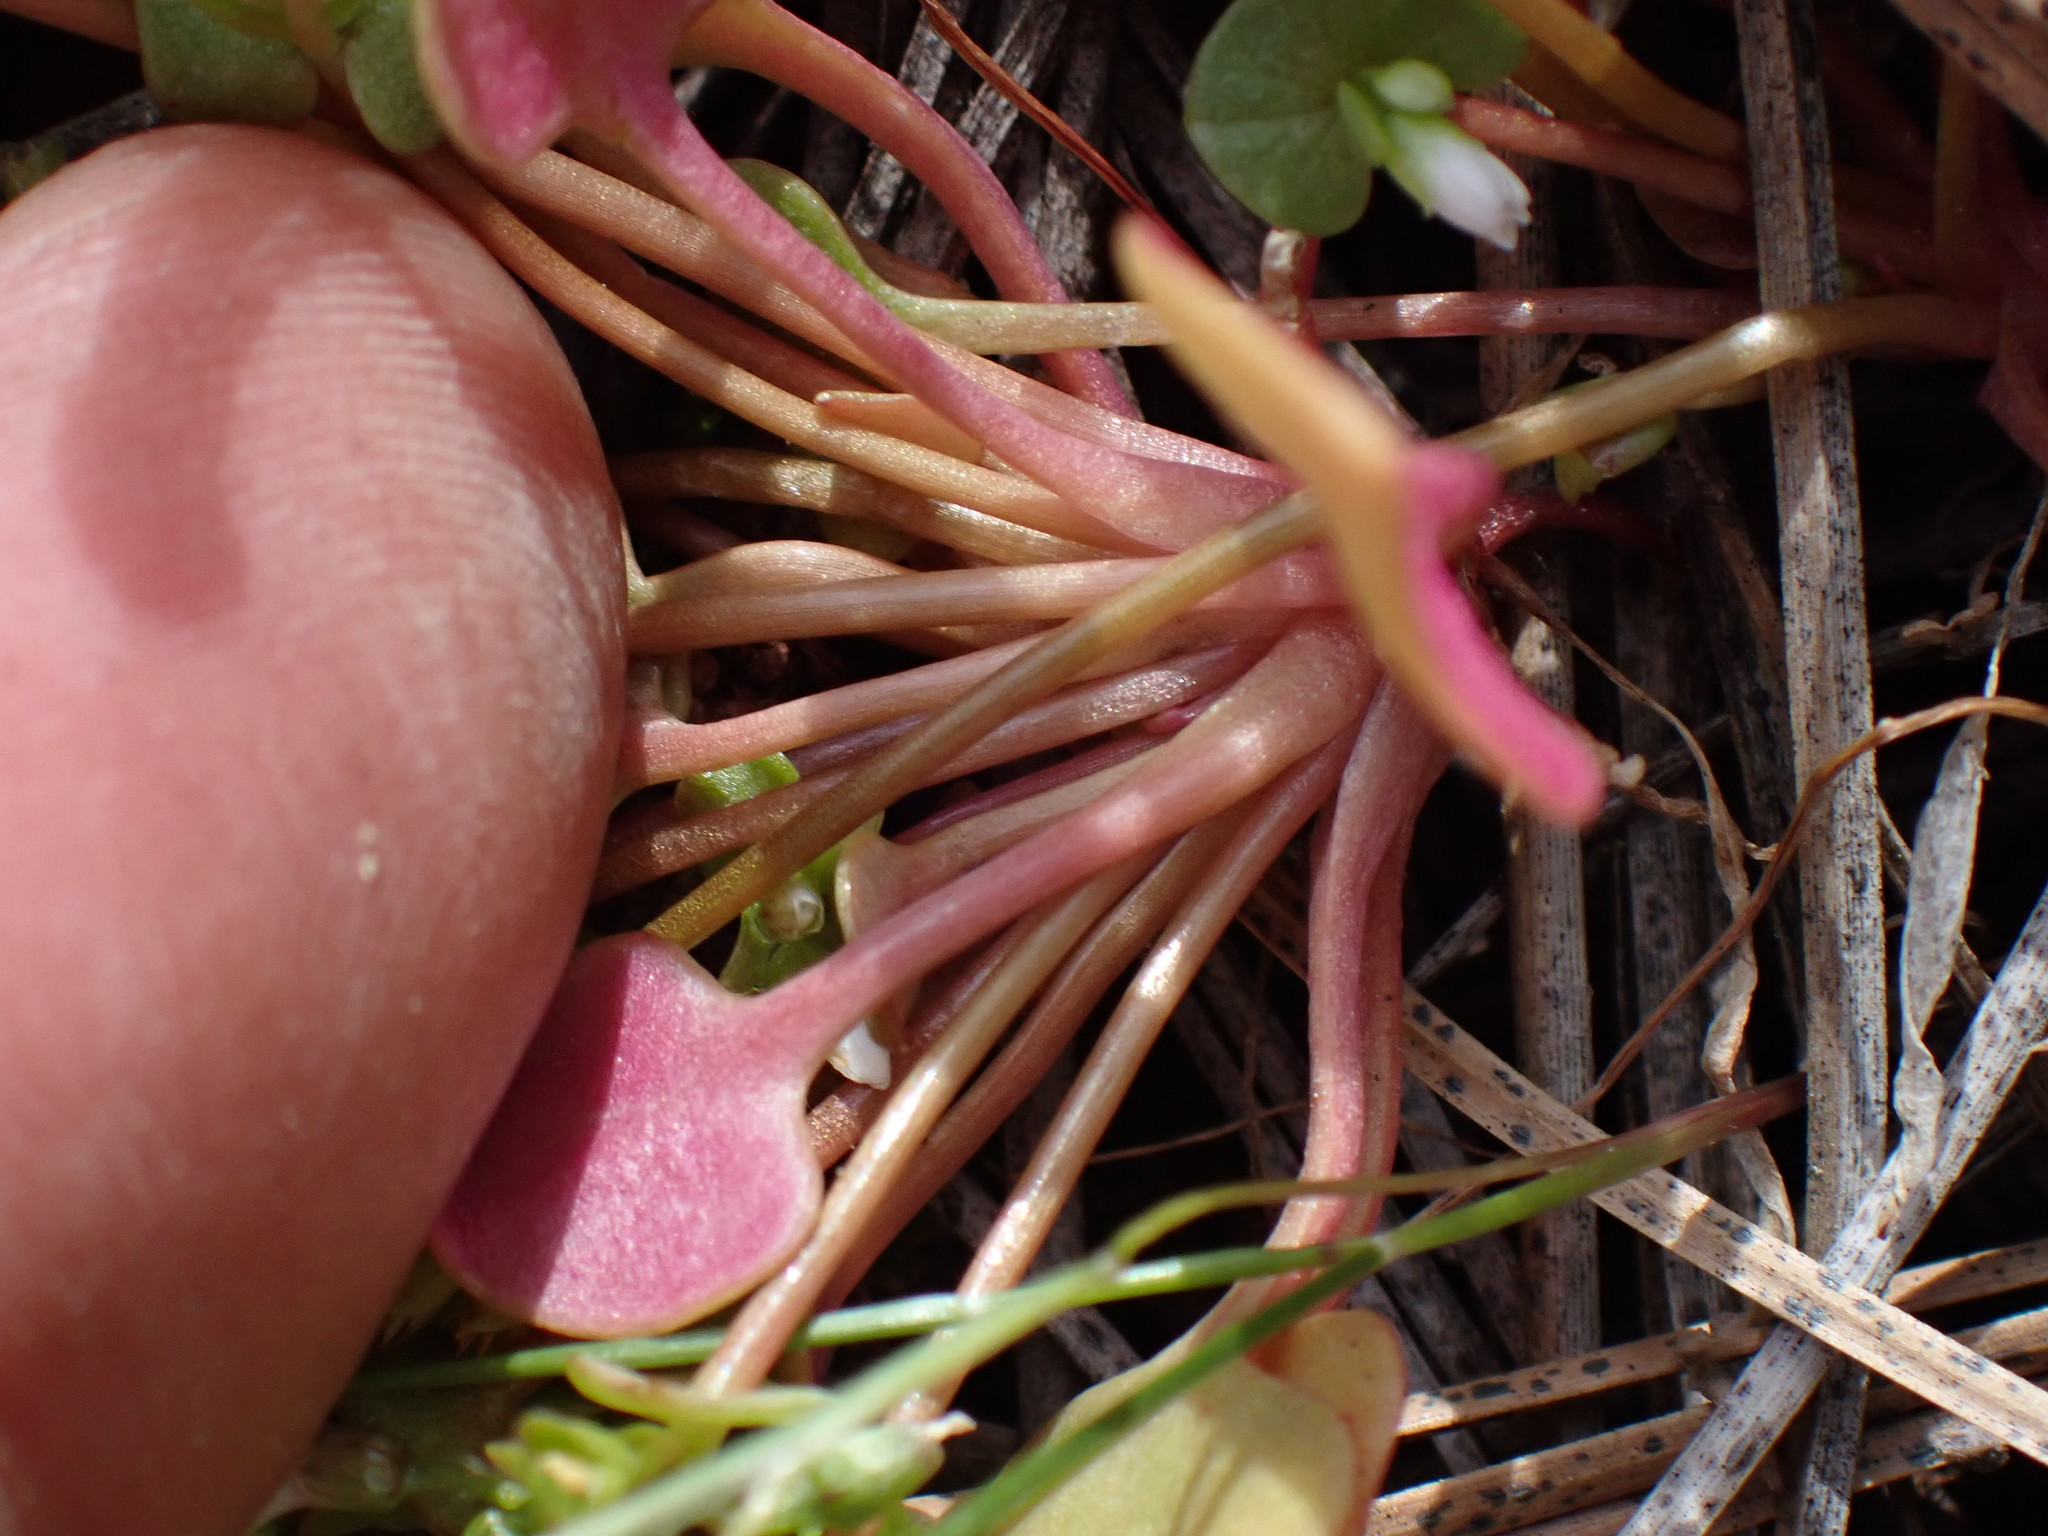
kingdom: Plantae
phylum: Tracheophyta
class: Magnoliopsida
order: Caryophyllales
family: Montiaceae
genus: Claytonia
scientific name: Claytonia rubra
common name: Erubescent miner's-lettuce
